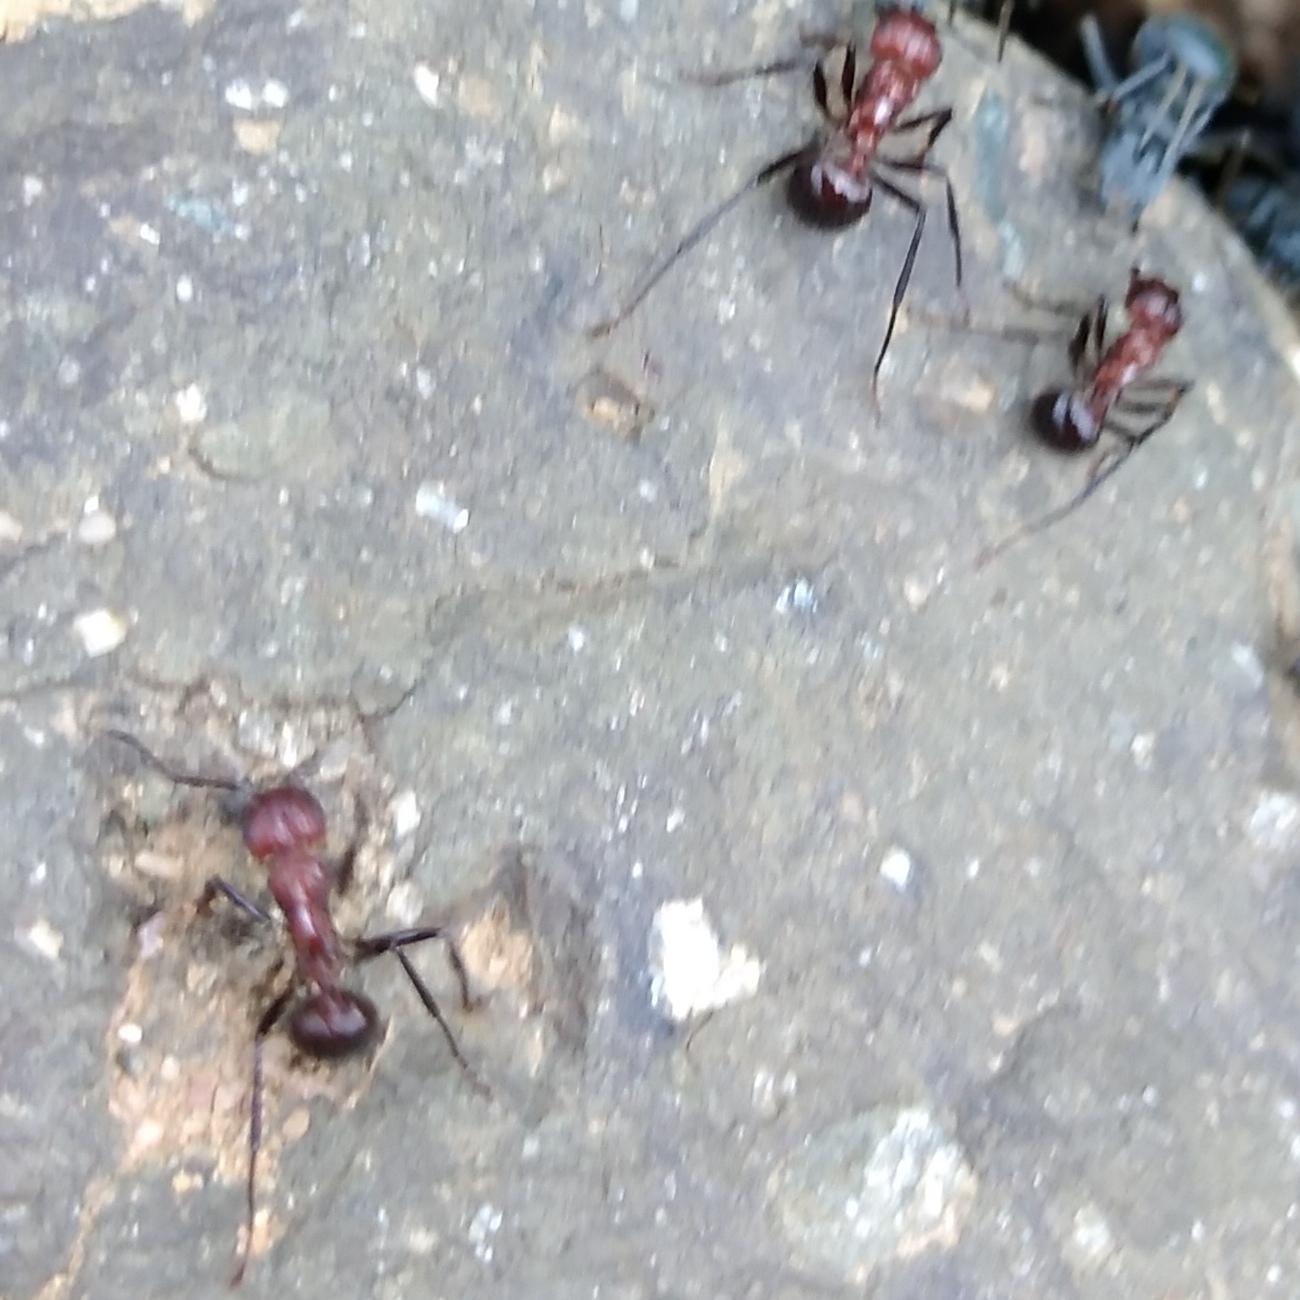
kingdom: Animalia
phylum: Arthropoda
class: Insecta
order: Hymenoptera
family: Formicidae
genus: Myrmicaria
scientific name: Myrmicaria natalensis
